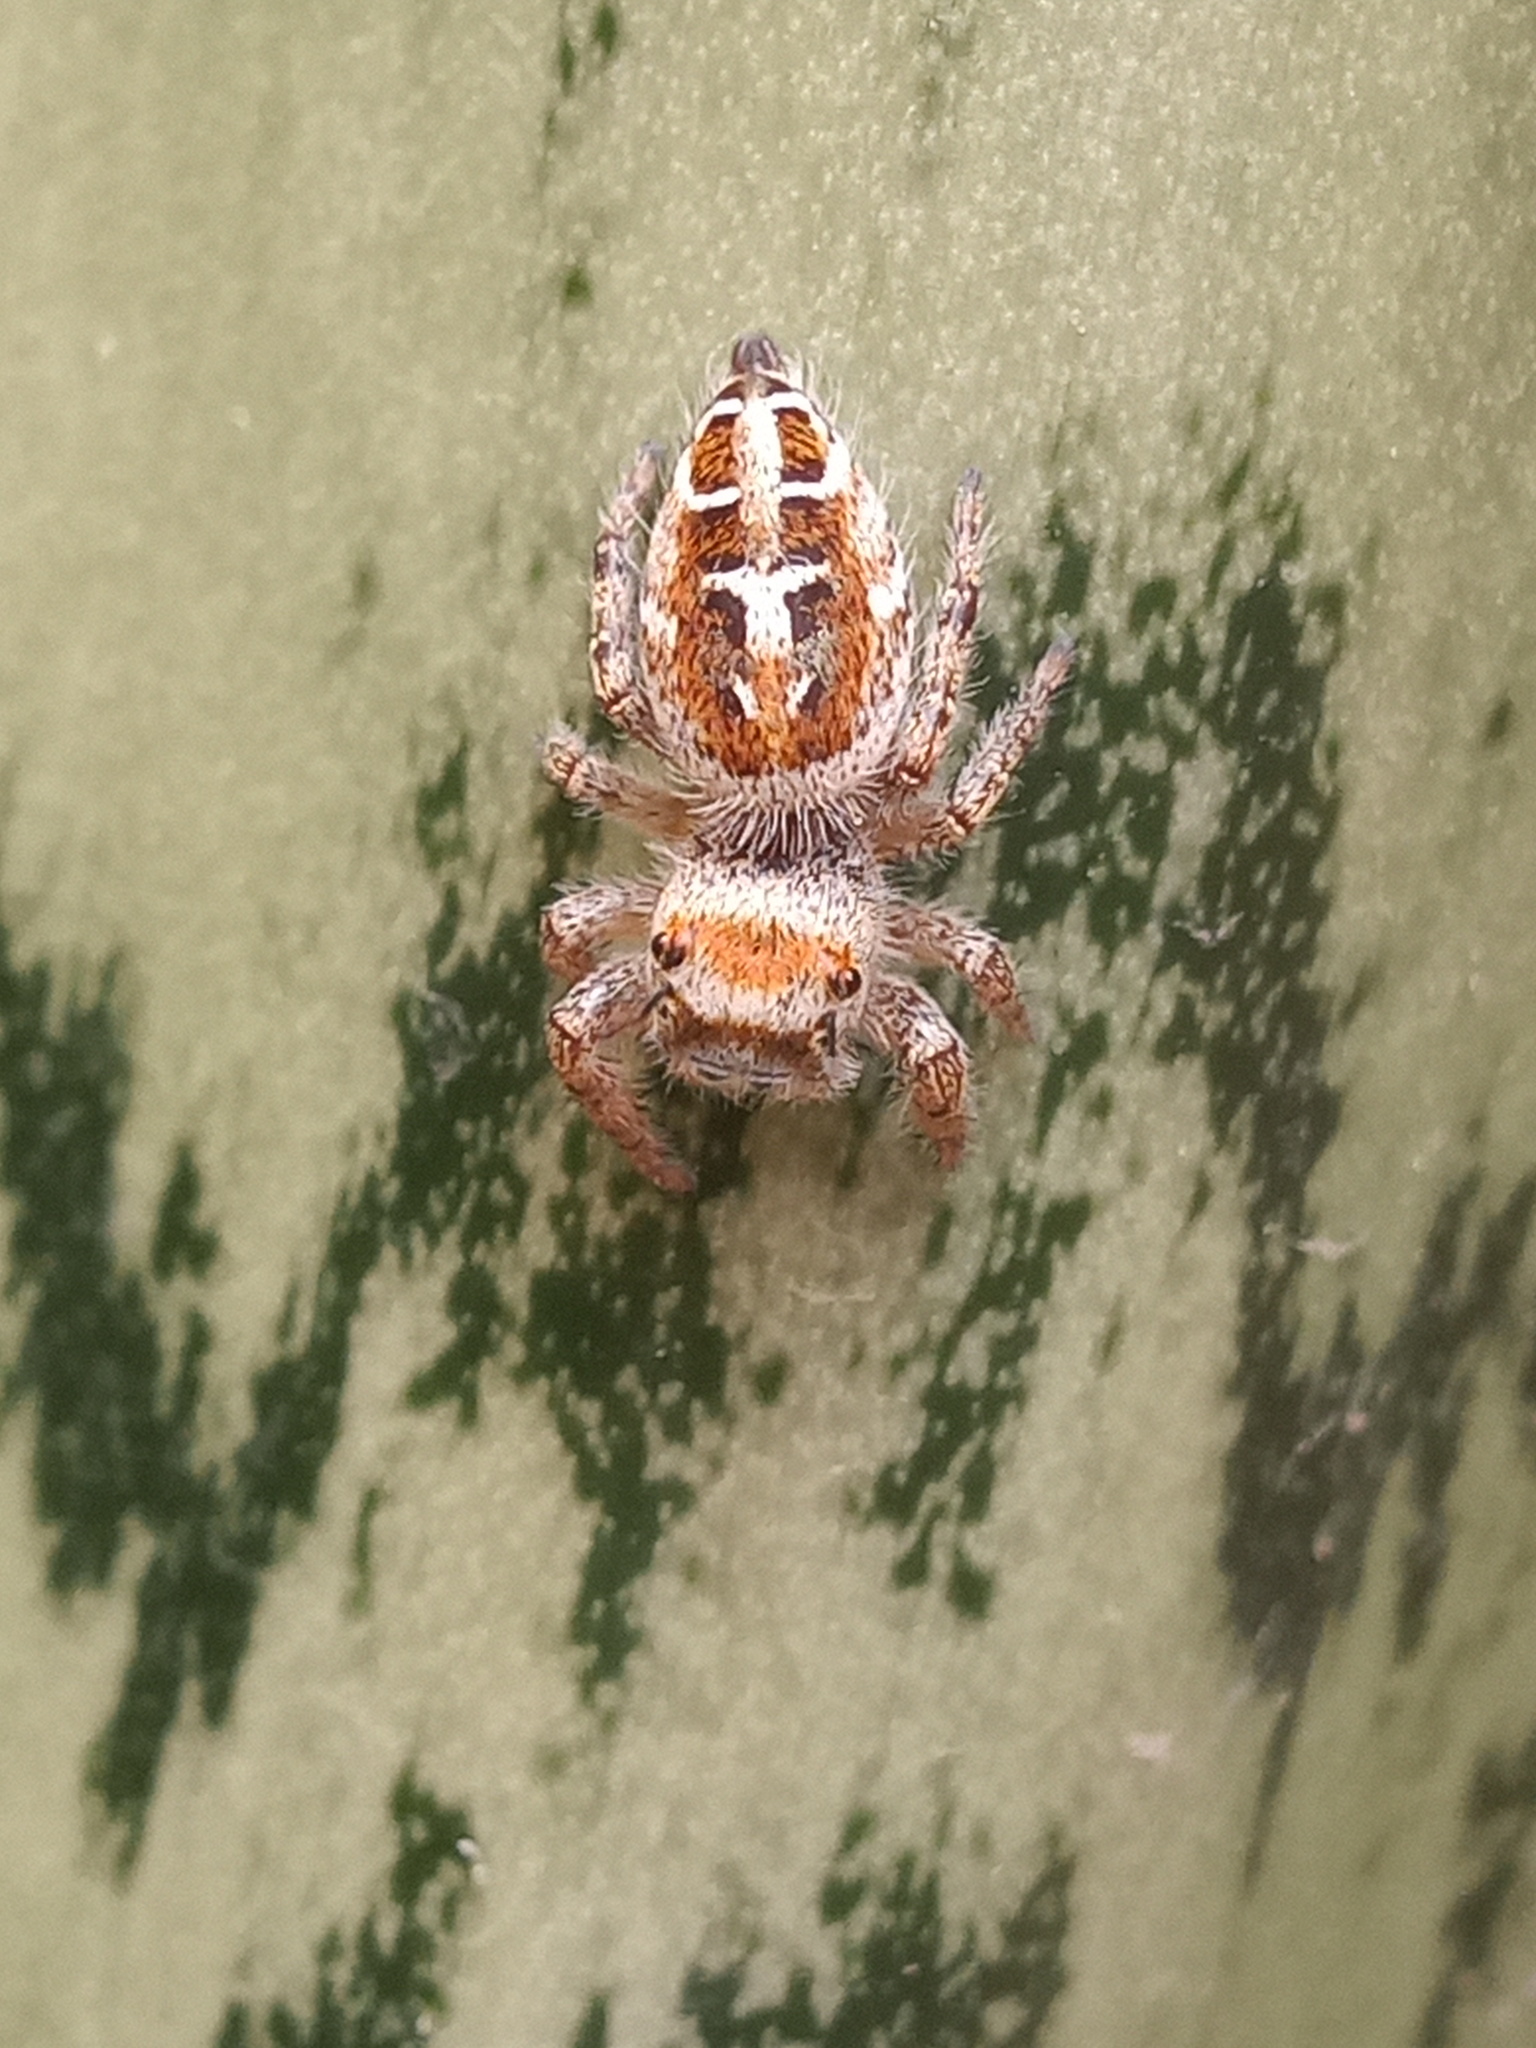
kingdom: Animalia
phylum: Arthropoda
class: Arachnida
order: Araneae
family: Salticidae
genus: Phidippus
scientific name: Phidippus arizonensis
